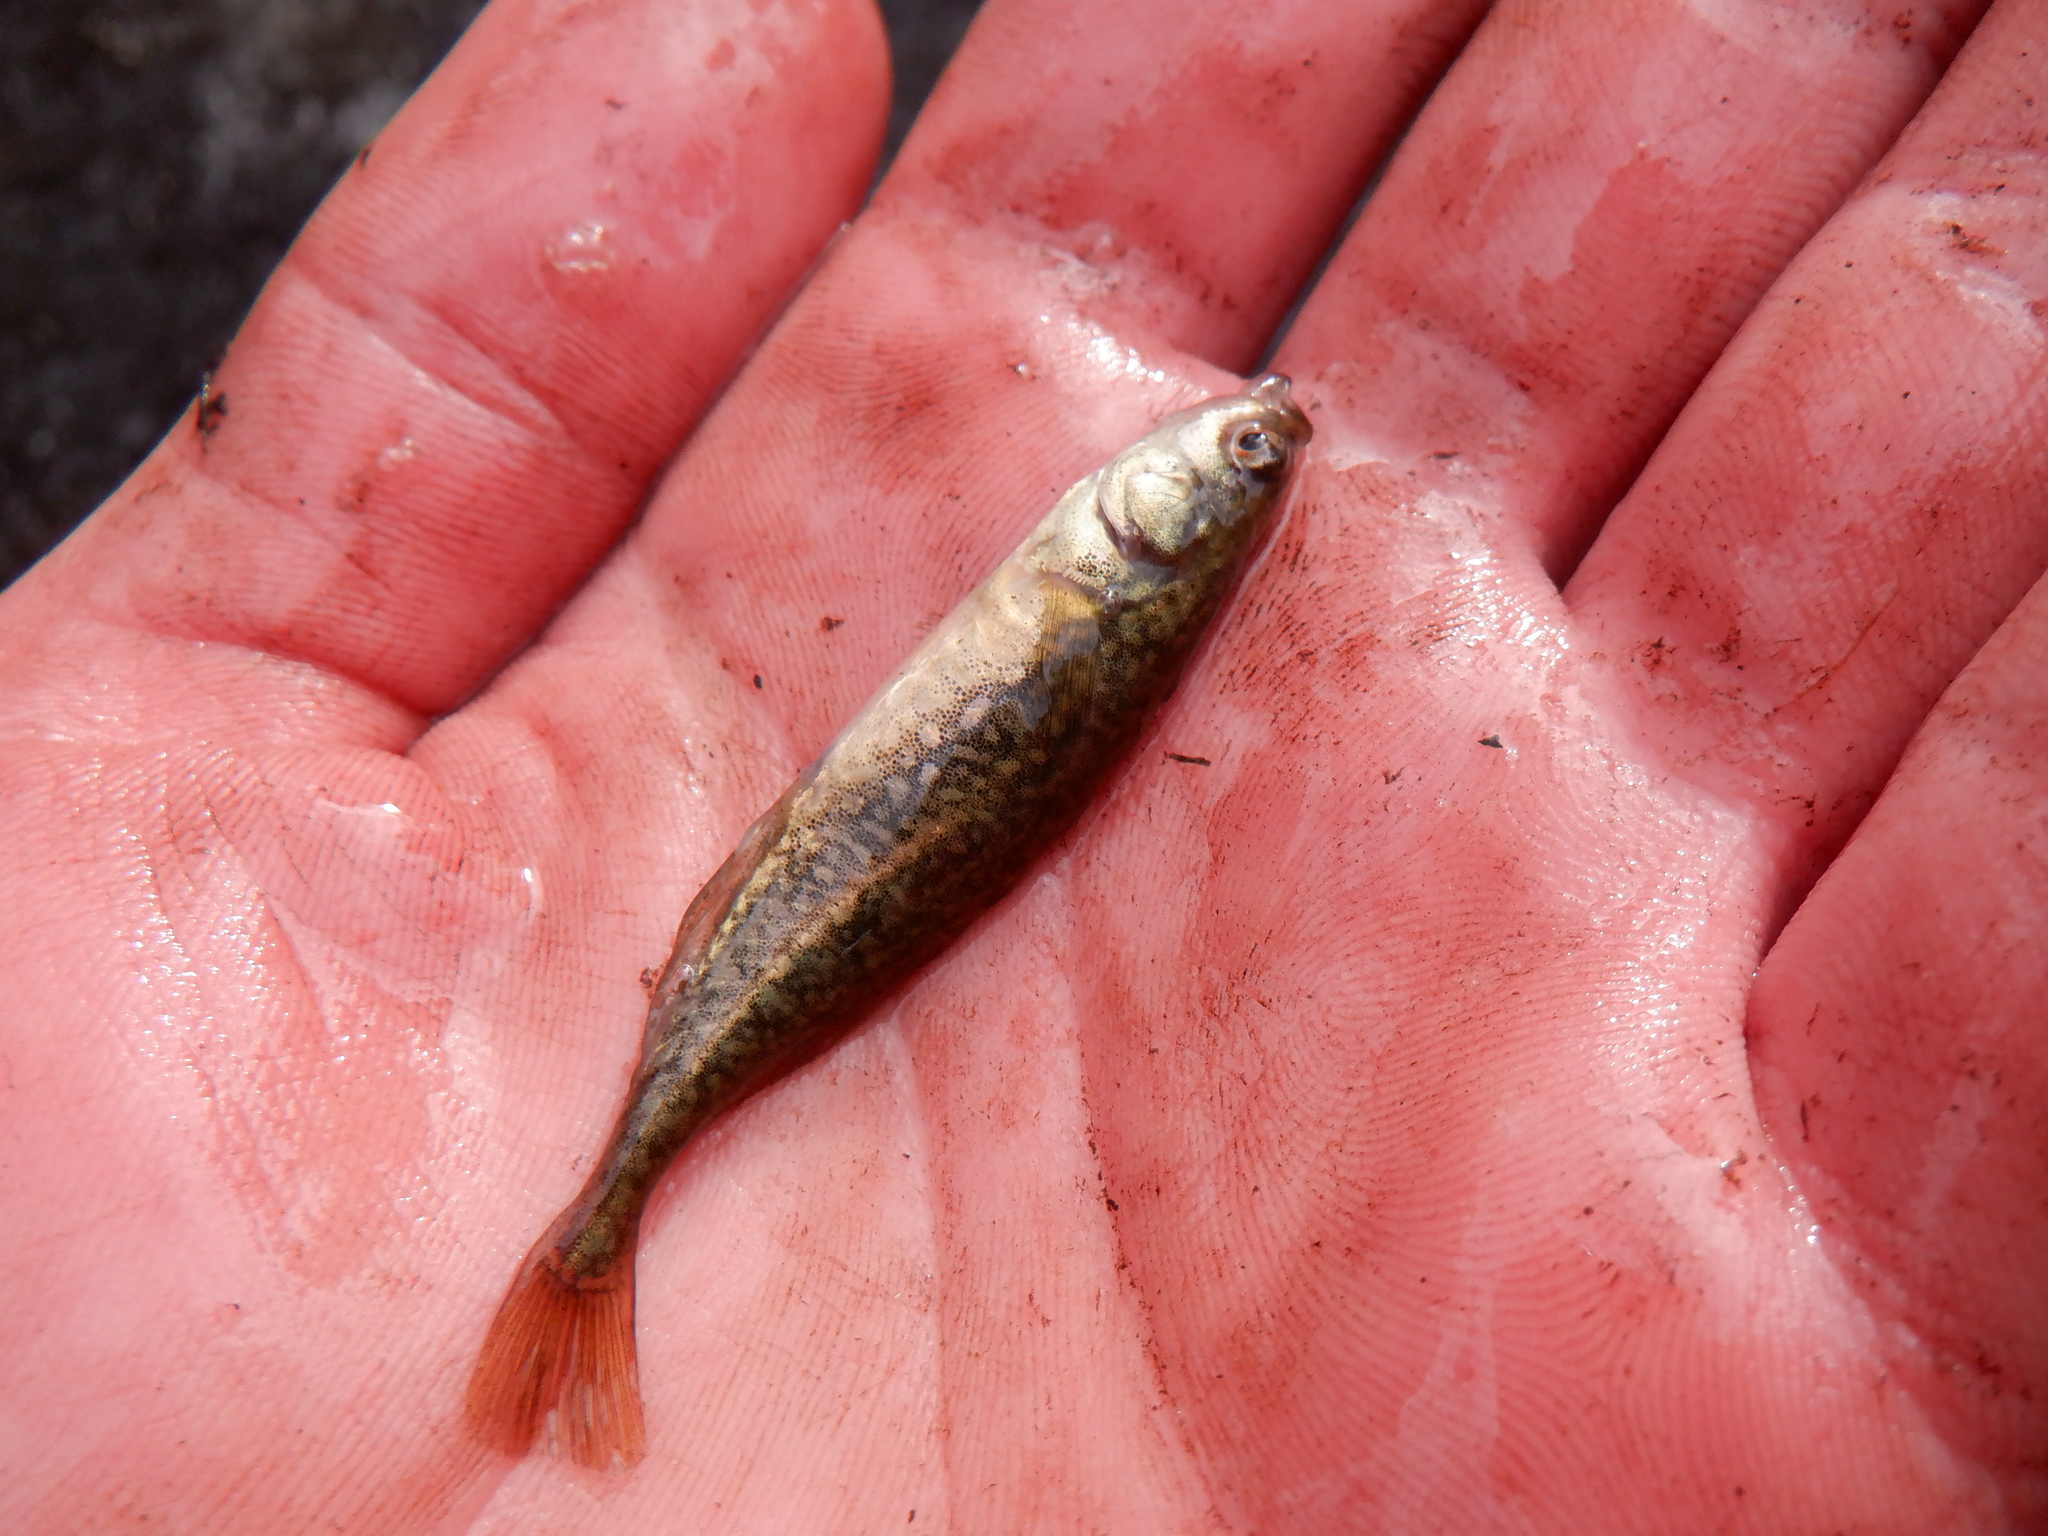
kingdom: Animalia
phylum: Chordata
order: Gasterosteiformes
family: Gasterosteidae
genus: Culaea
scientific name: Culaea inconstans
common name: Brook stickleback
